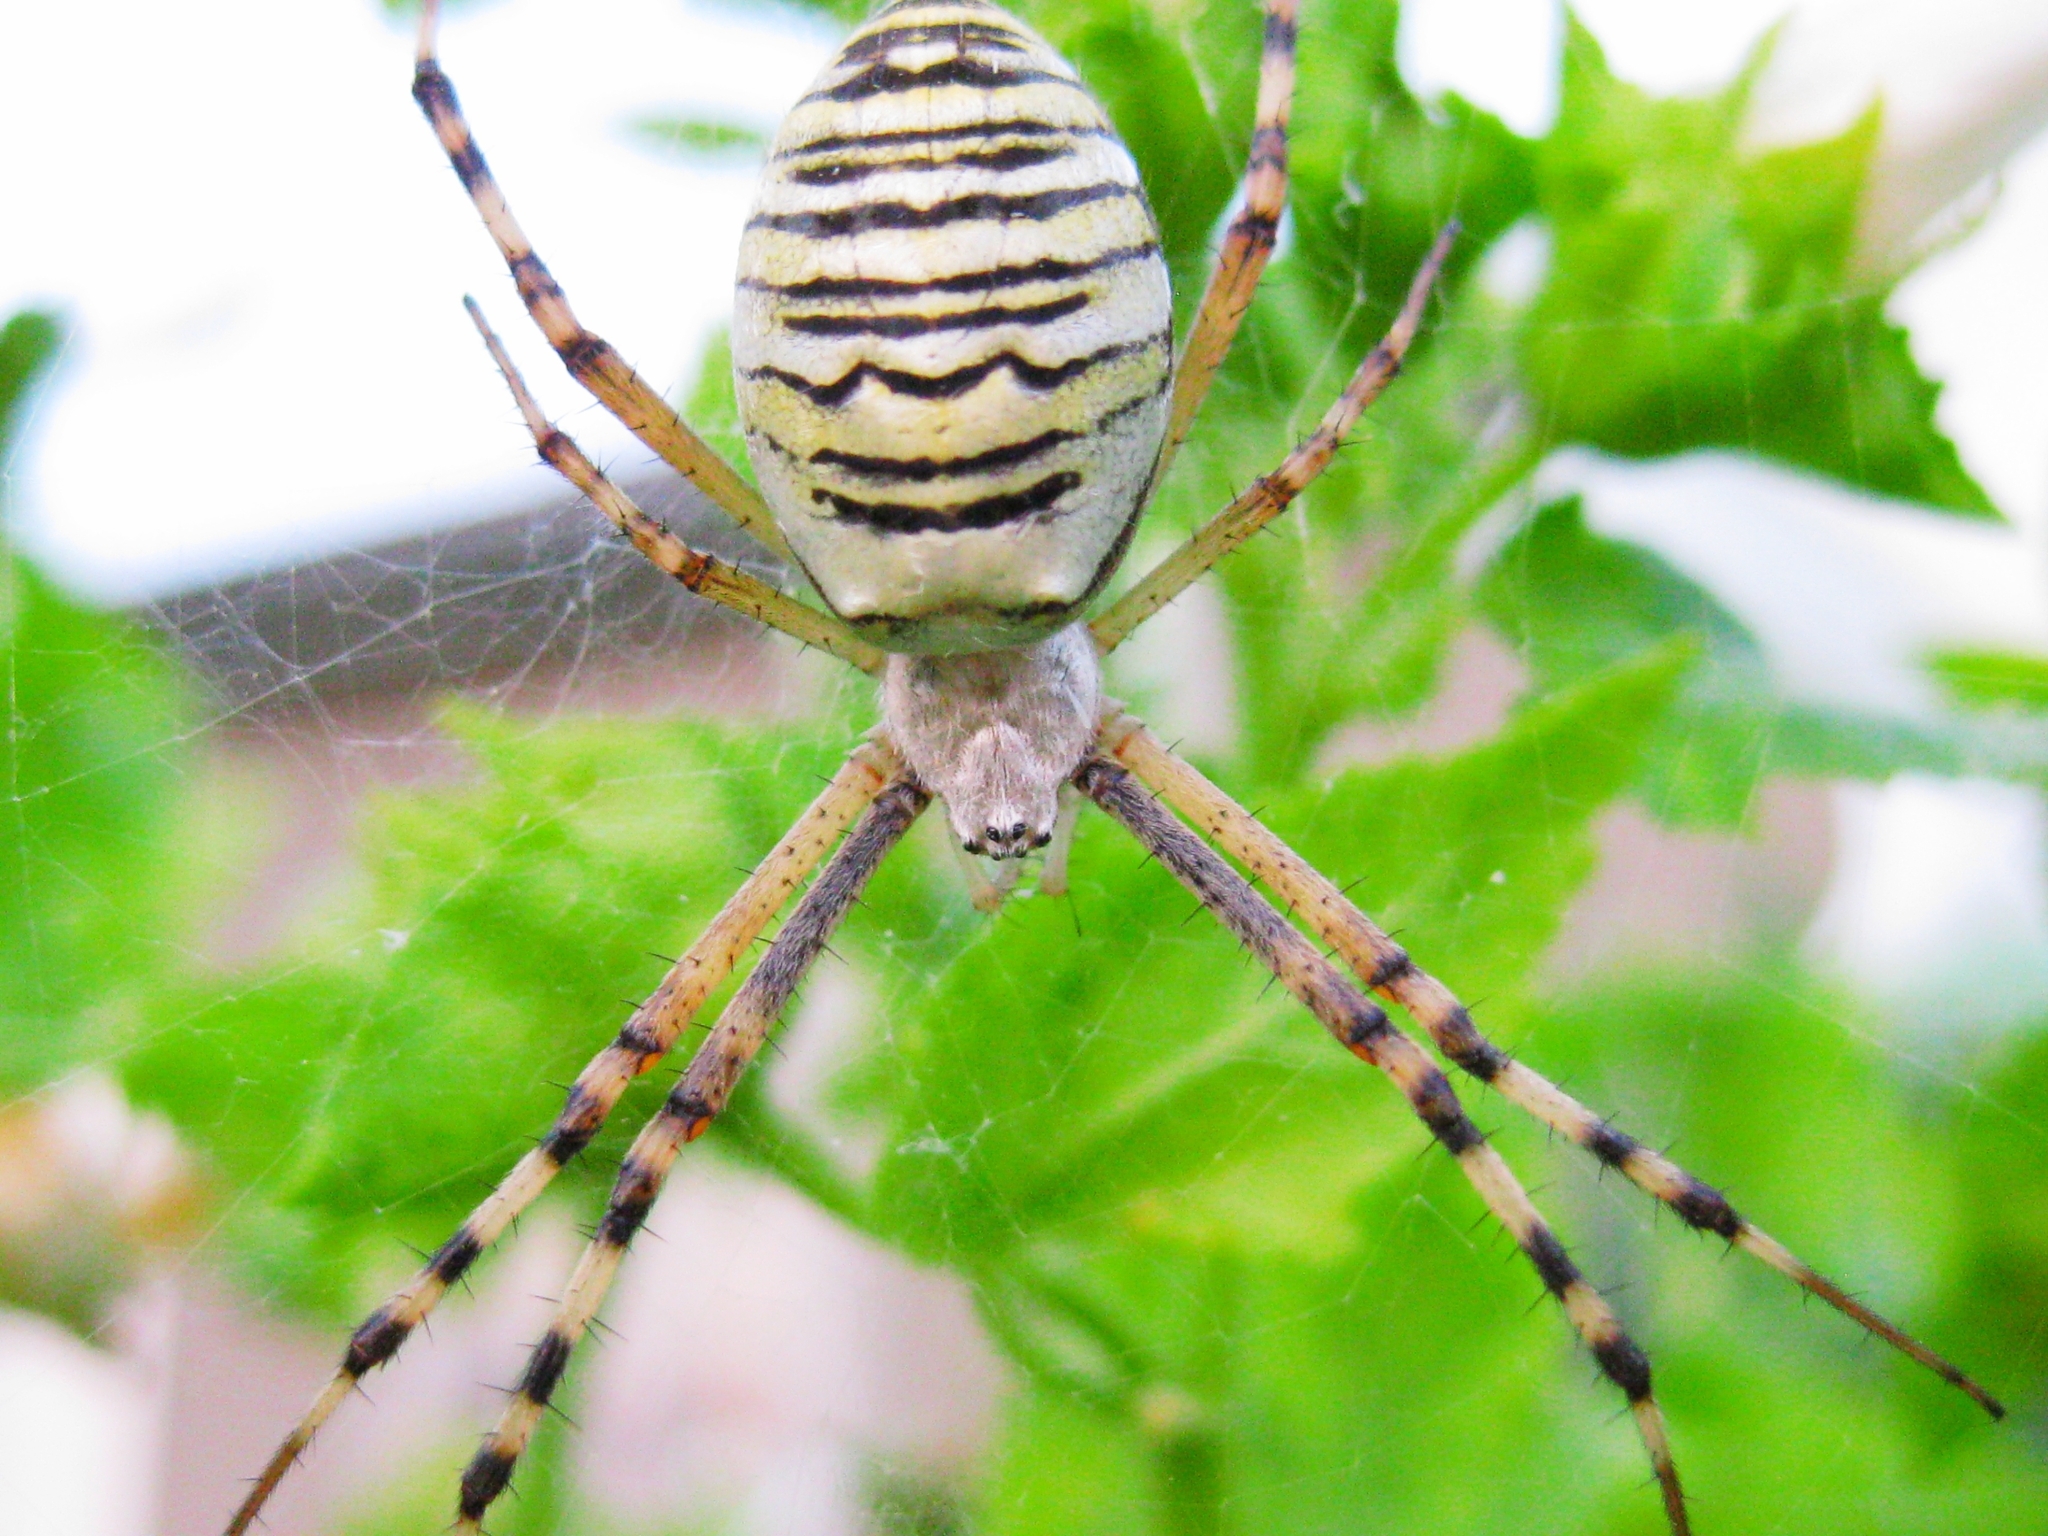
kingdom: Animalia
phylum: Arthropoda
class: Arachnida
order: Araneae
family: Araneidae
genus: Argiope
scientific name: Argiope bruennichi
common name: Wasp spider
